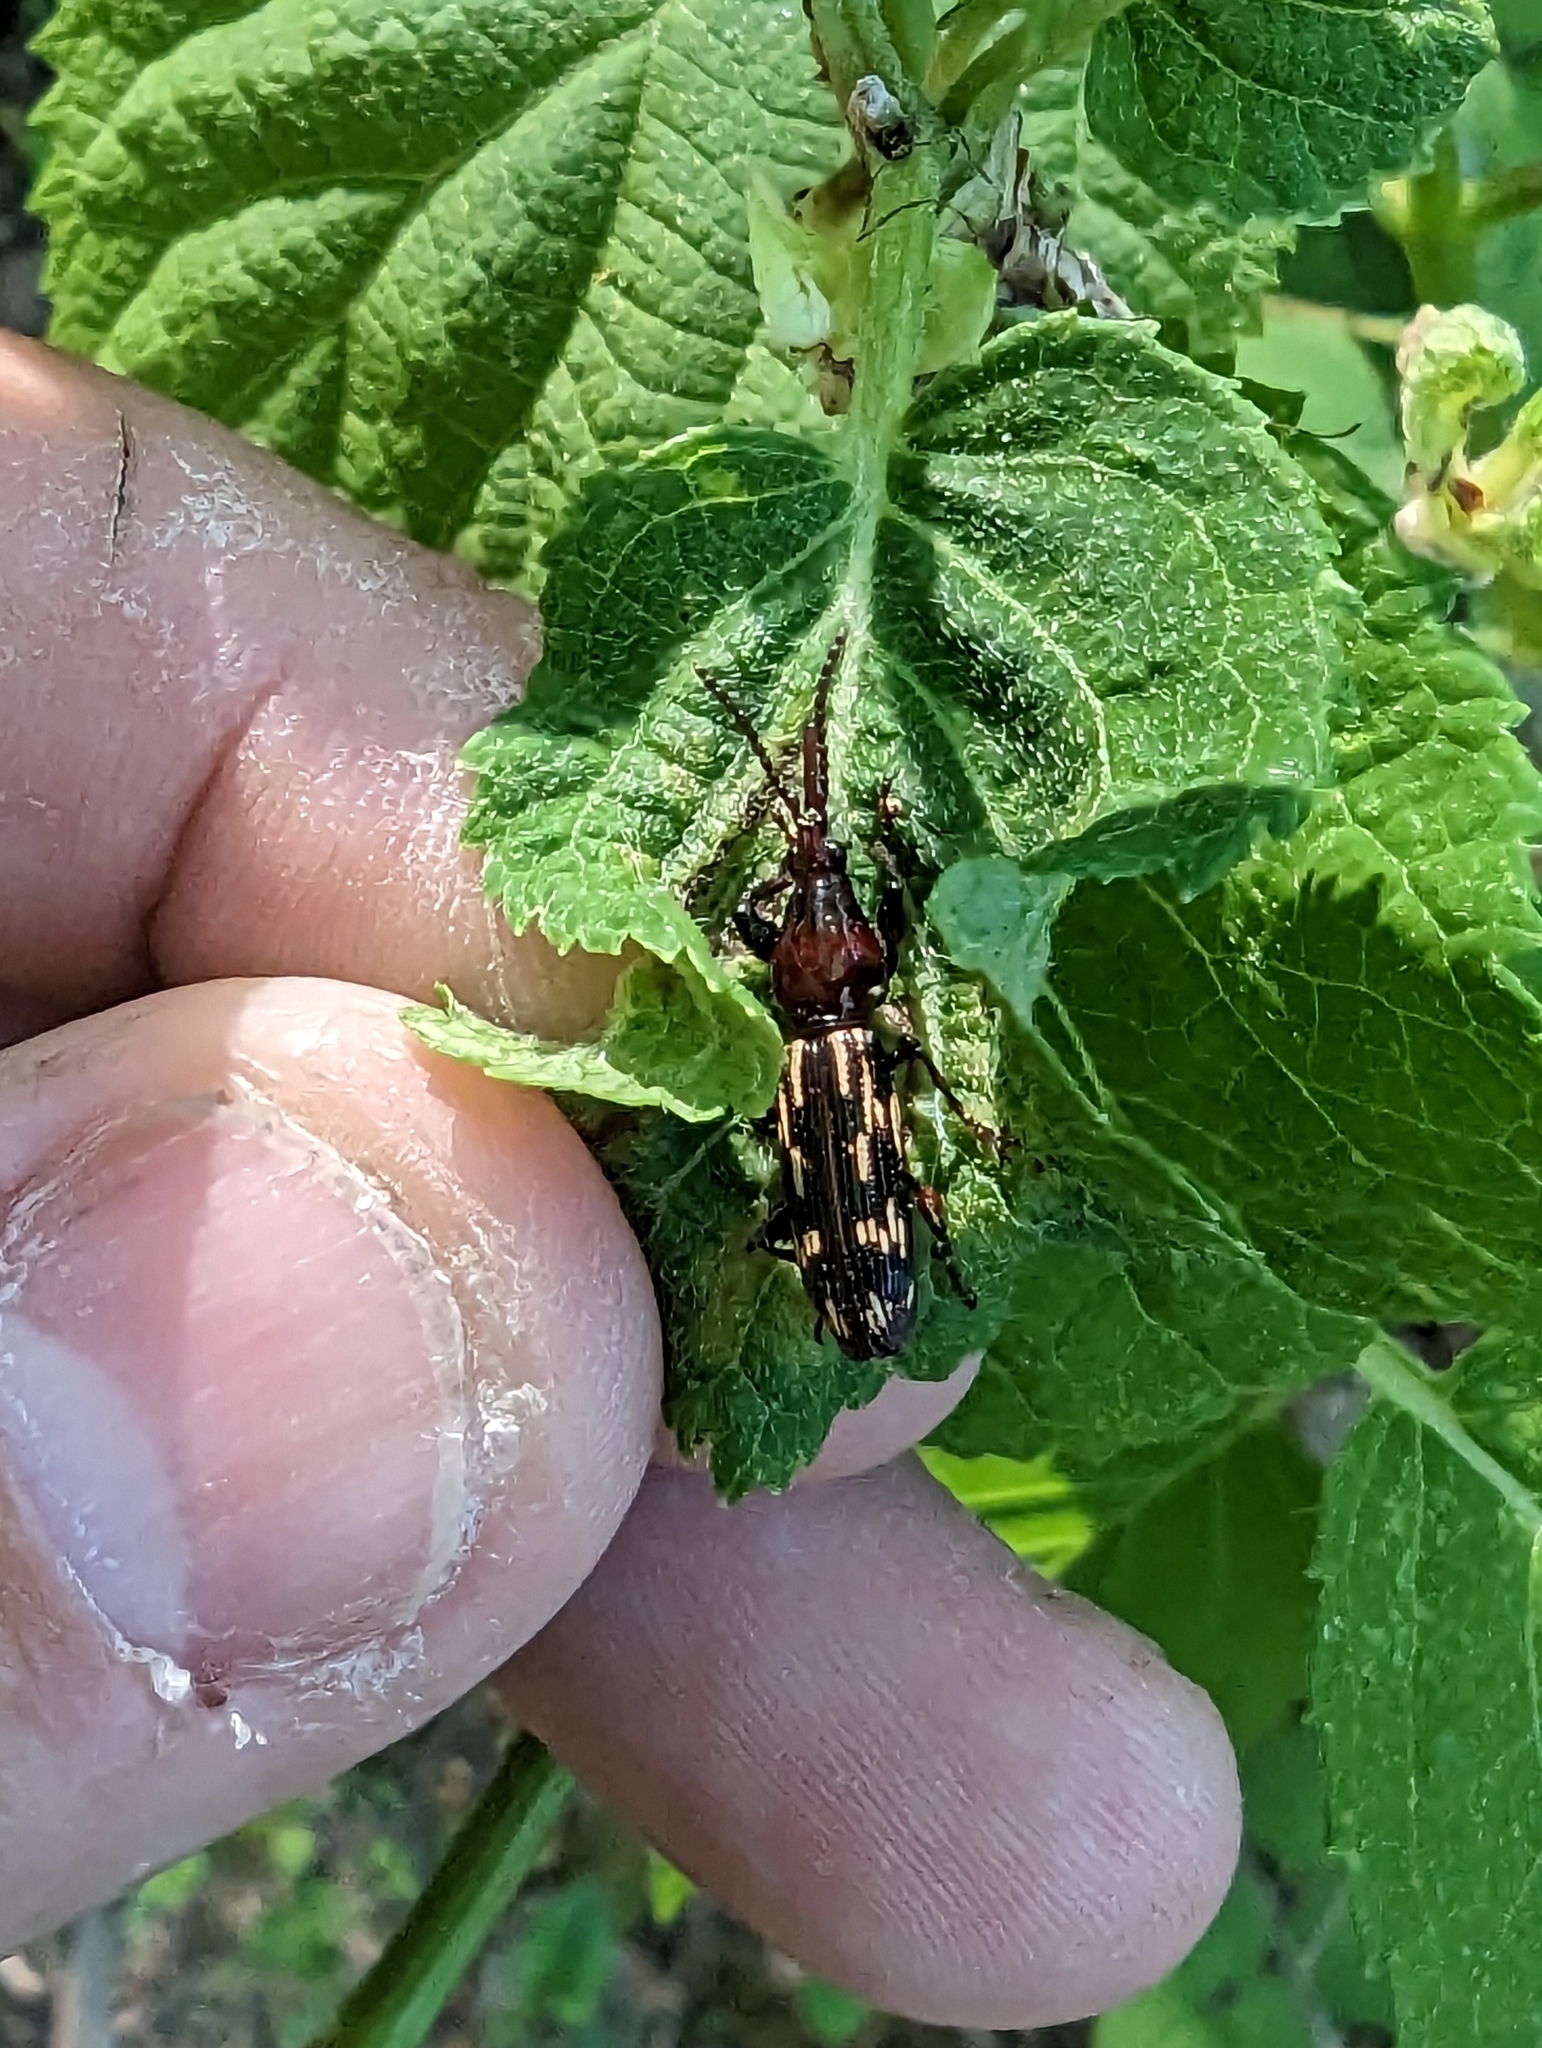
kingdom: Animalia
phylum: Arthropoda
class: Insecta
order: Coleoptera
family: Brentidae
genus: Arrenodes
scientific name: Arrenodes minutus
